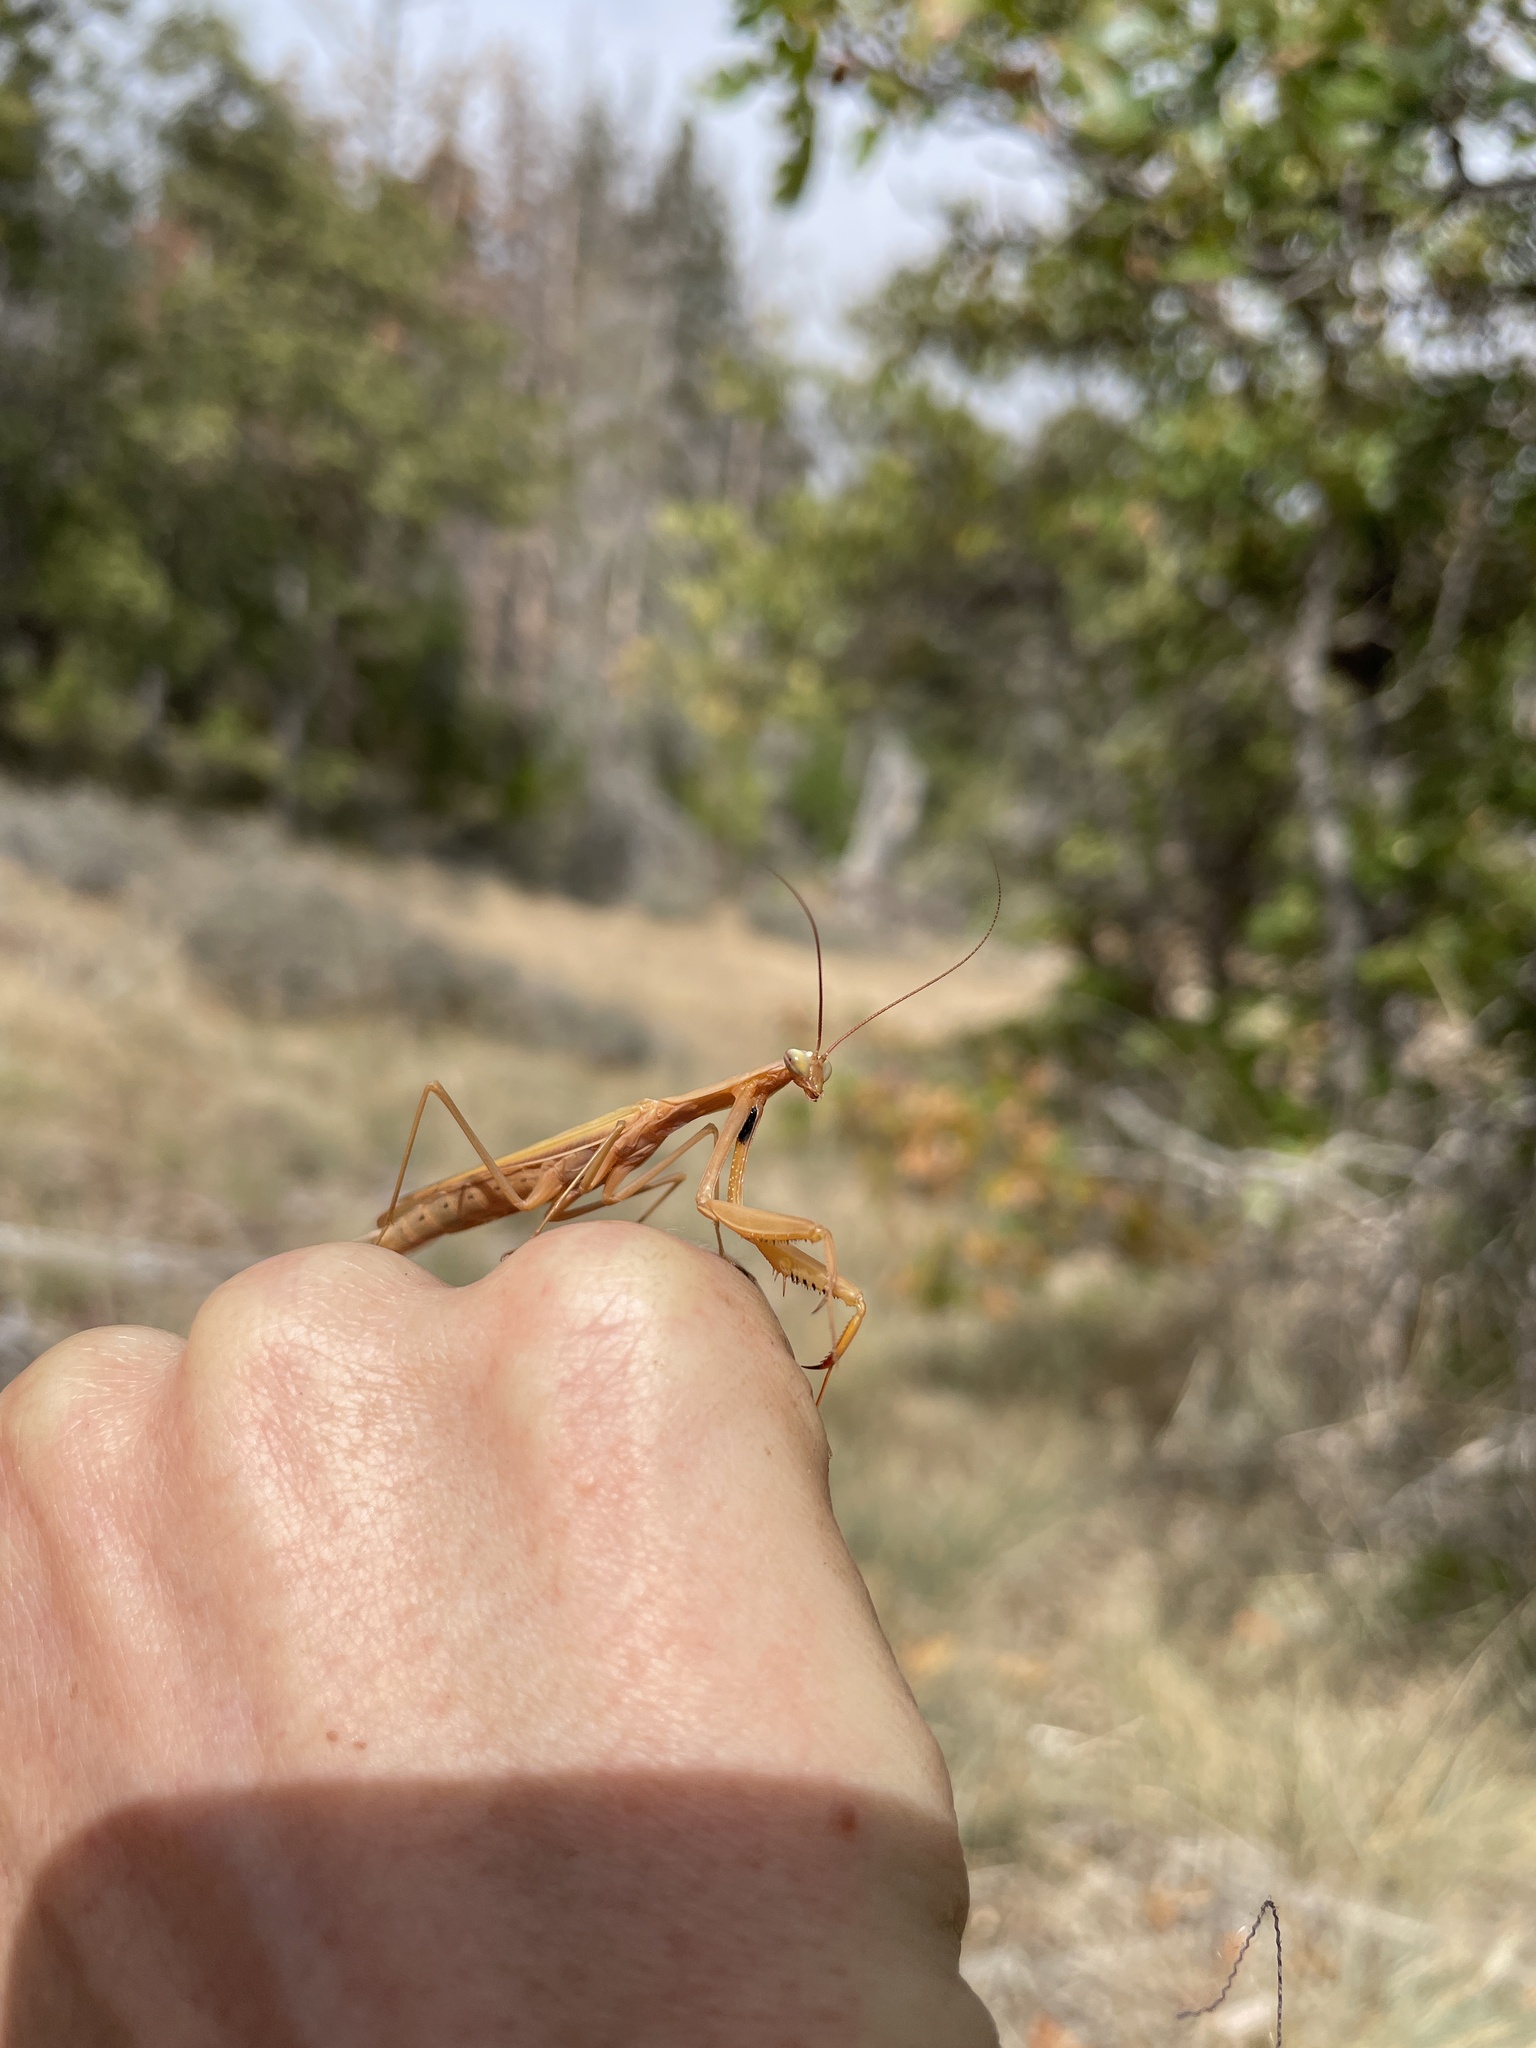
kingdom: Animalia
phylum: Arthropoda
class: Insecta
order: Mantodea
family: Mantidae
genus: Mantis
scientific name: Mantis religiosa
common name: Praying mantis
